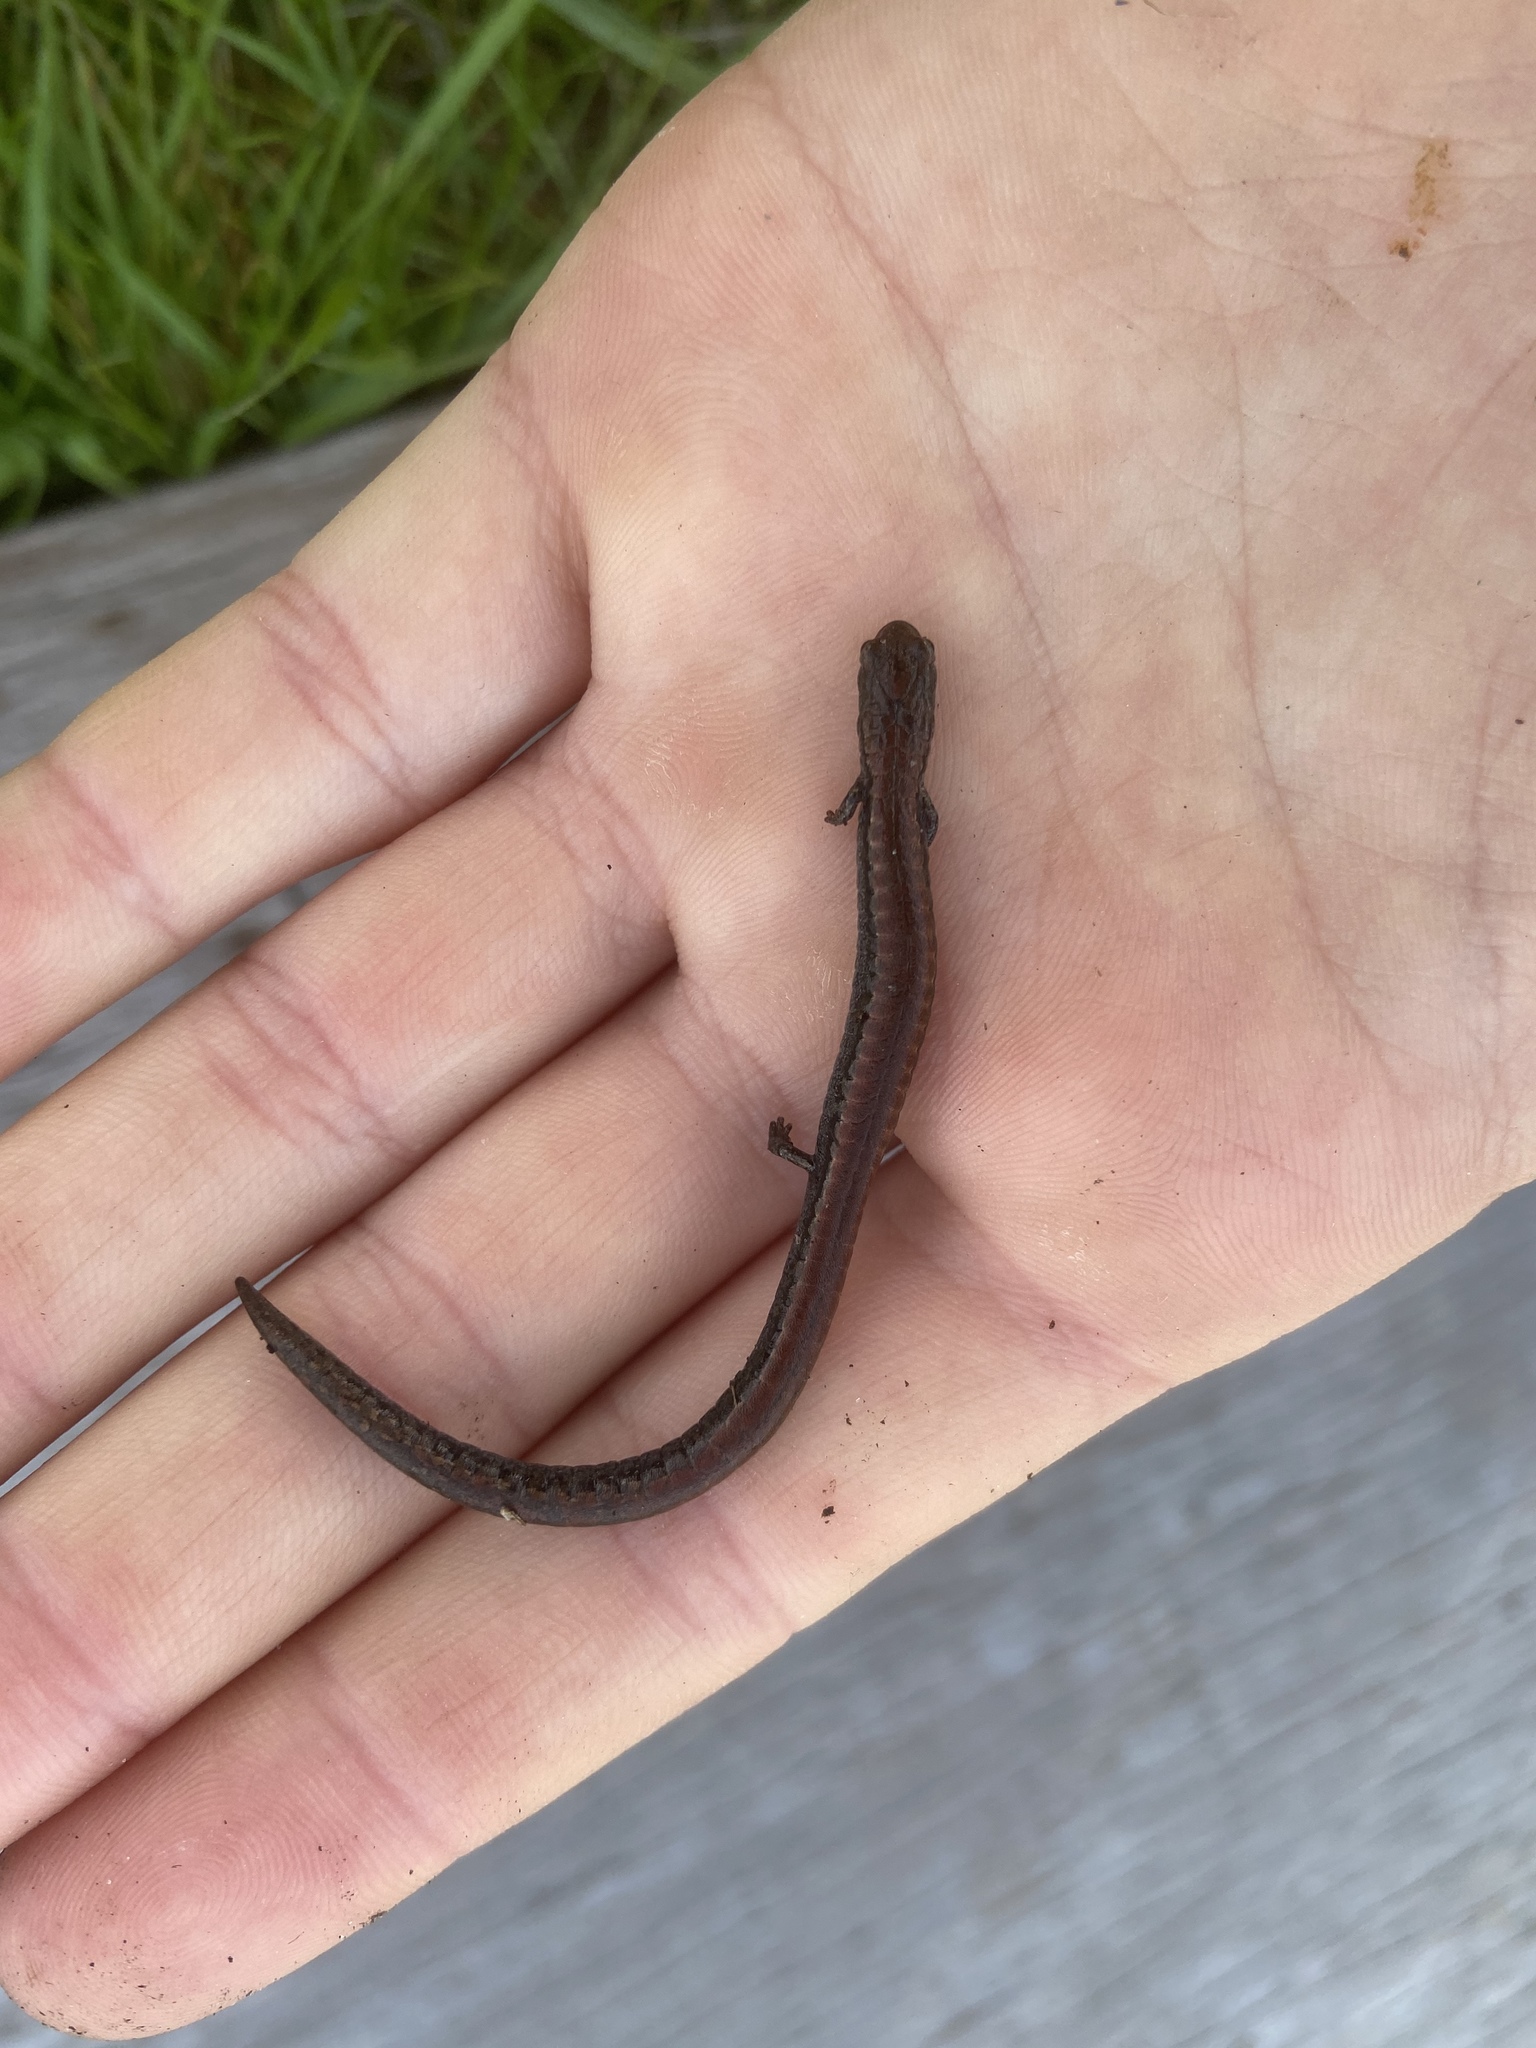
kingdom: Animalia
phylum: Chordata
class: Amphibia
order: Caudata
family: Plethodontidae
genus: Batrachoseps
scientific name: Batrachoseps attenuatus
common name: California slender salamander
